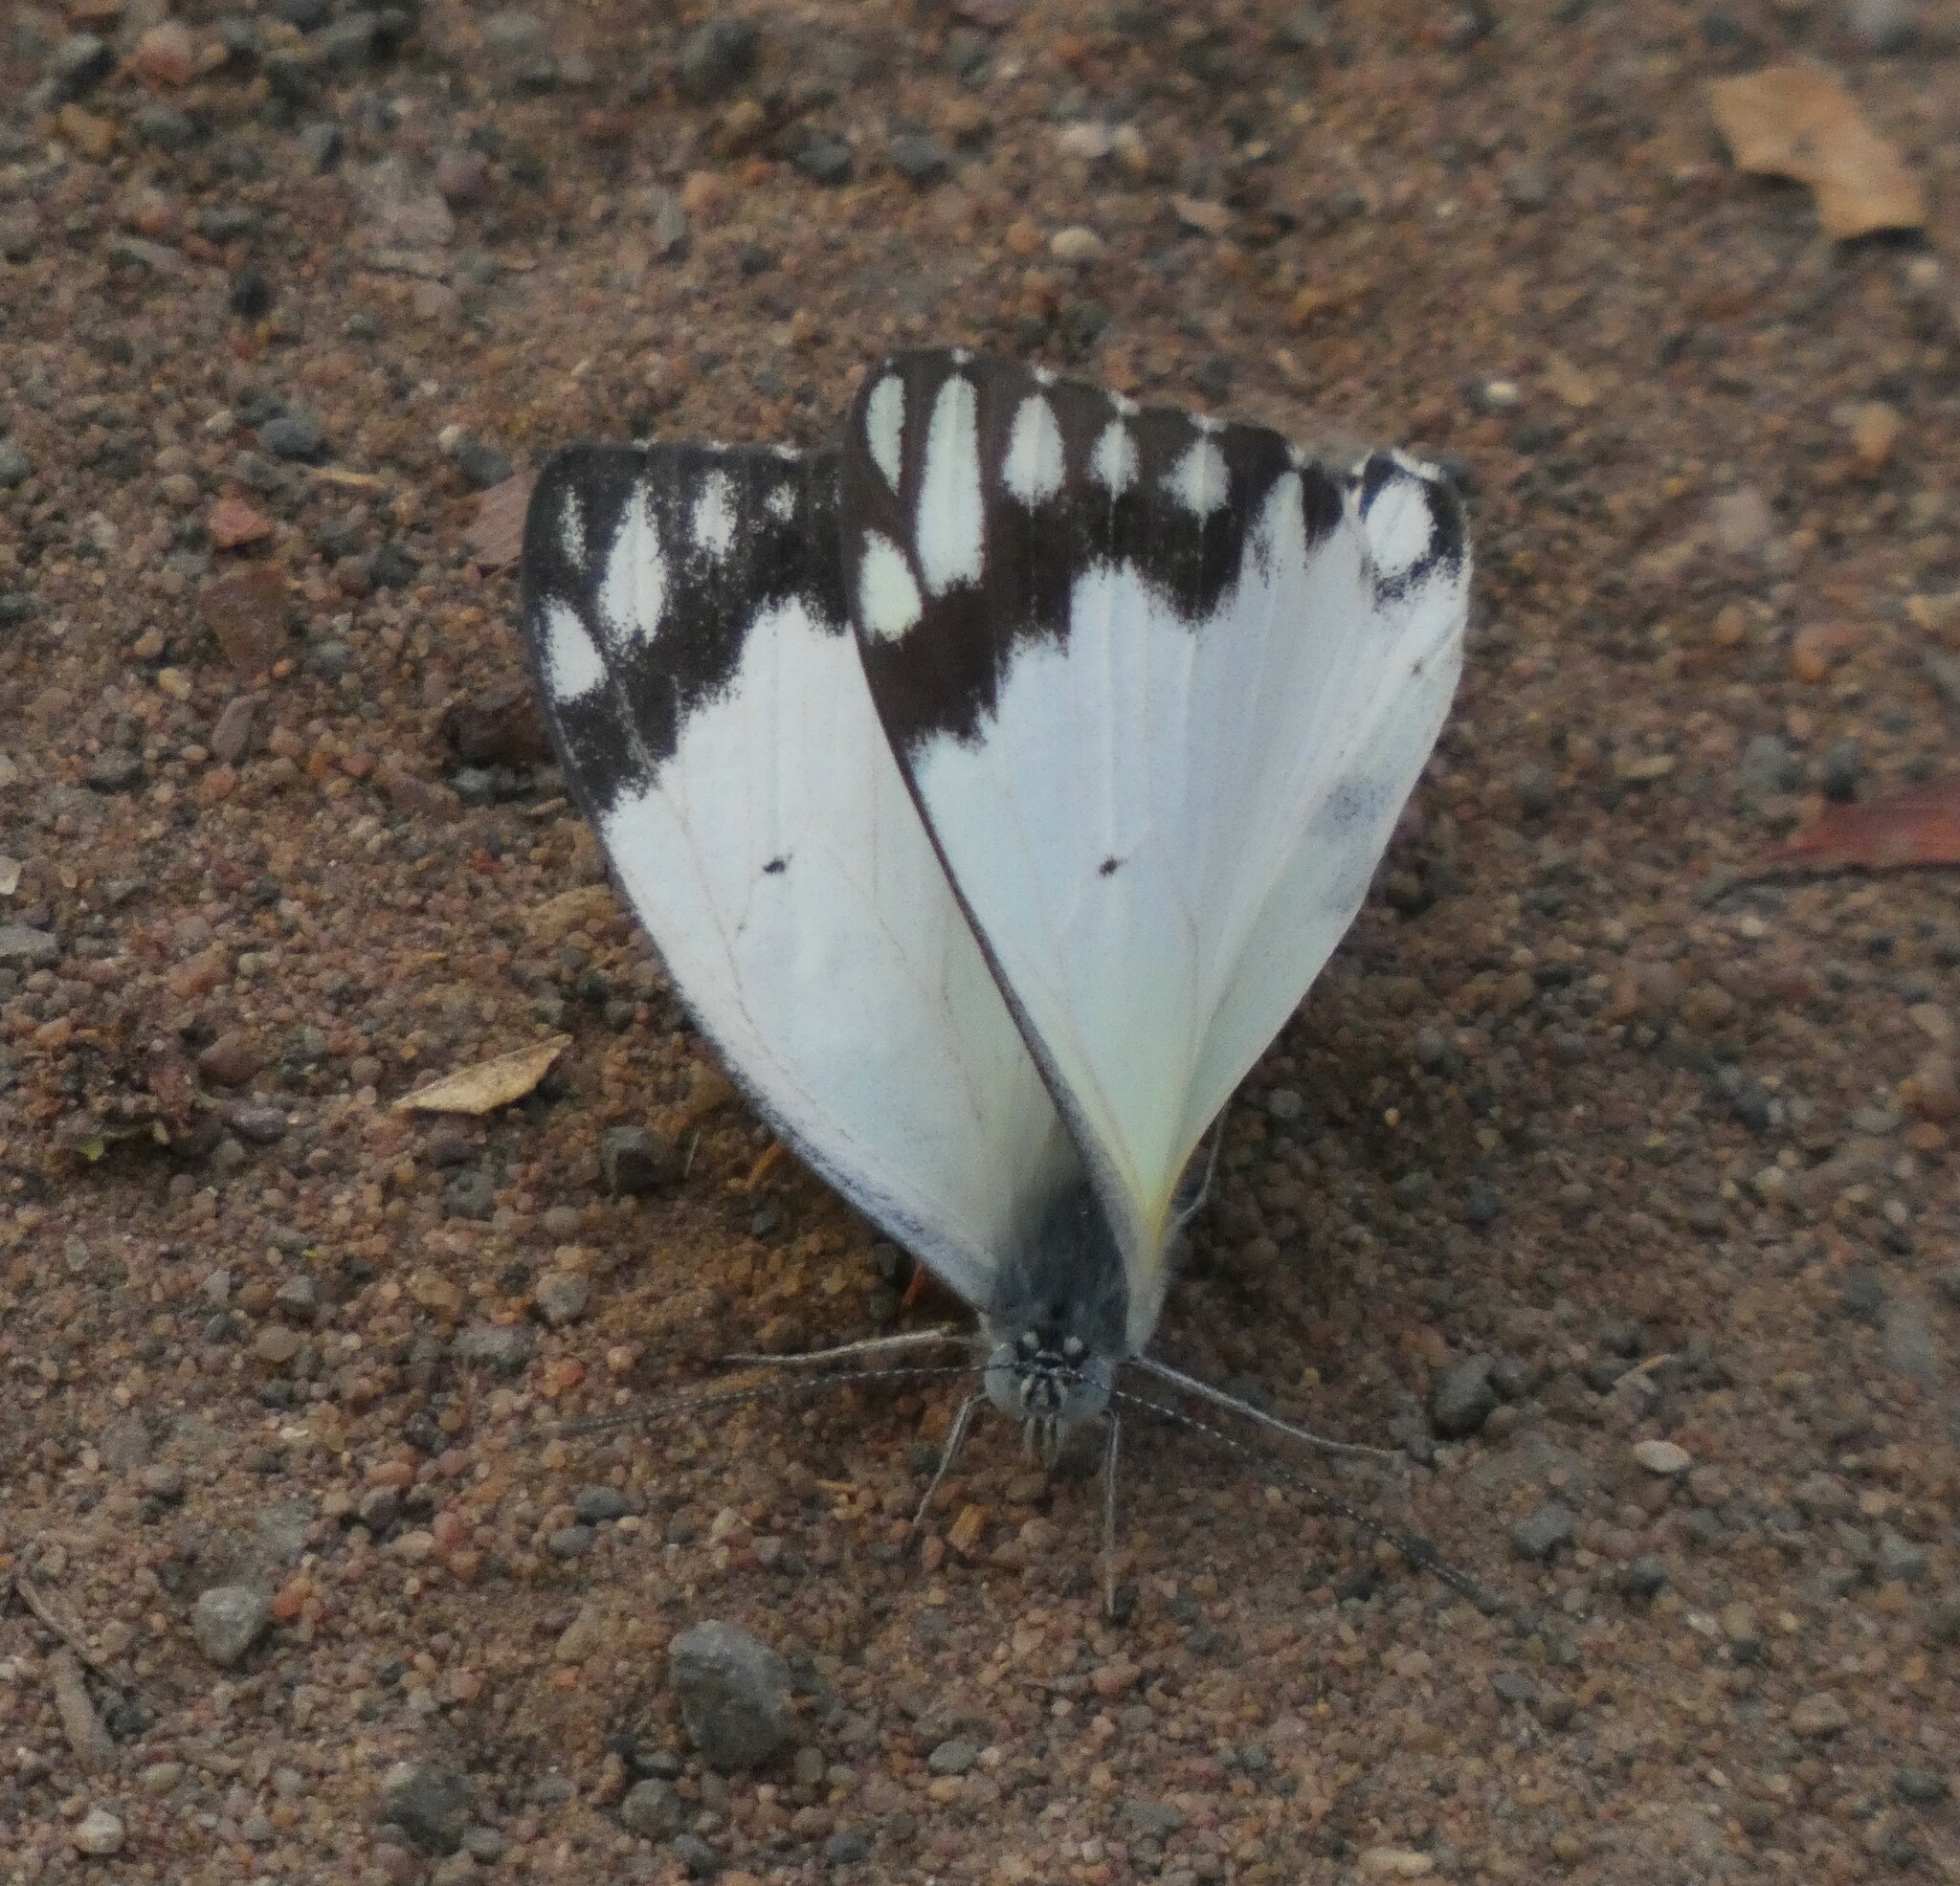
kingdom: Animalia
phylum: Arthropoda
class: Insecta
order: Lepidoptera
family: Pieridae
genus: Belenois
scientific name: Belenois creona
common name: African caper white
